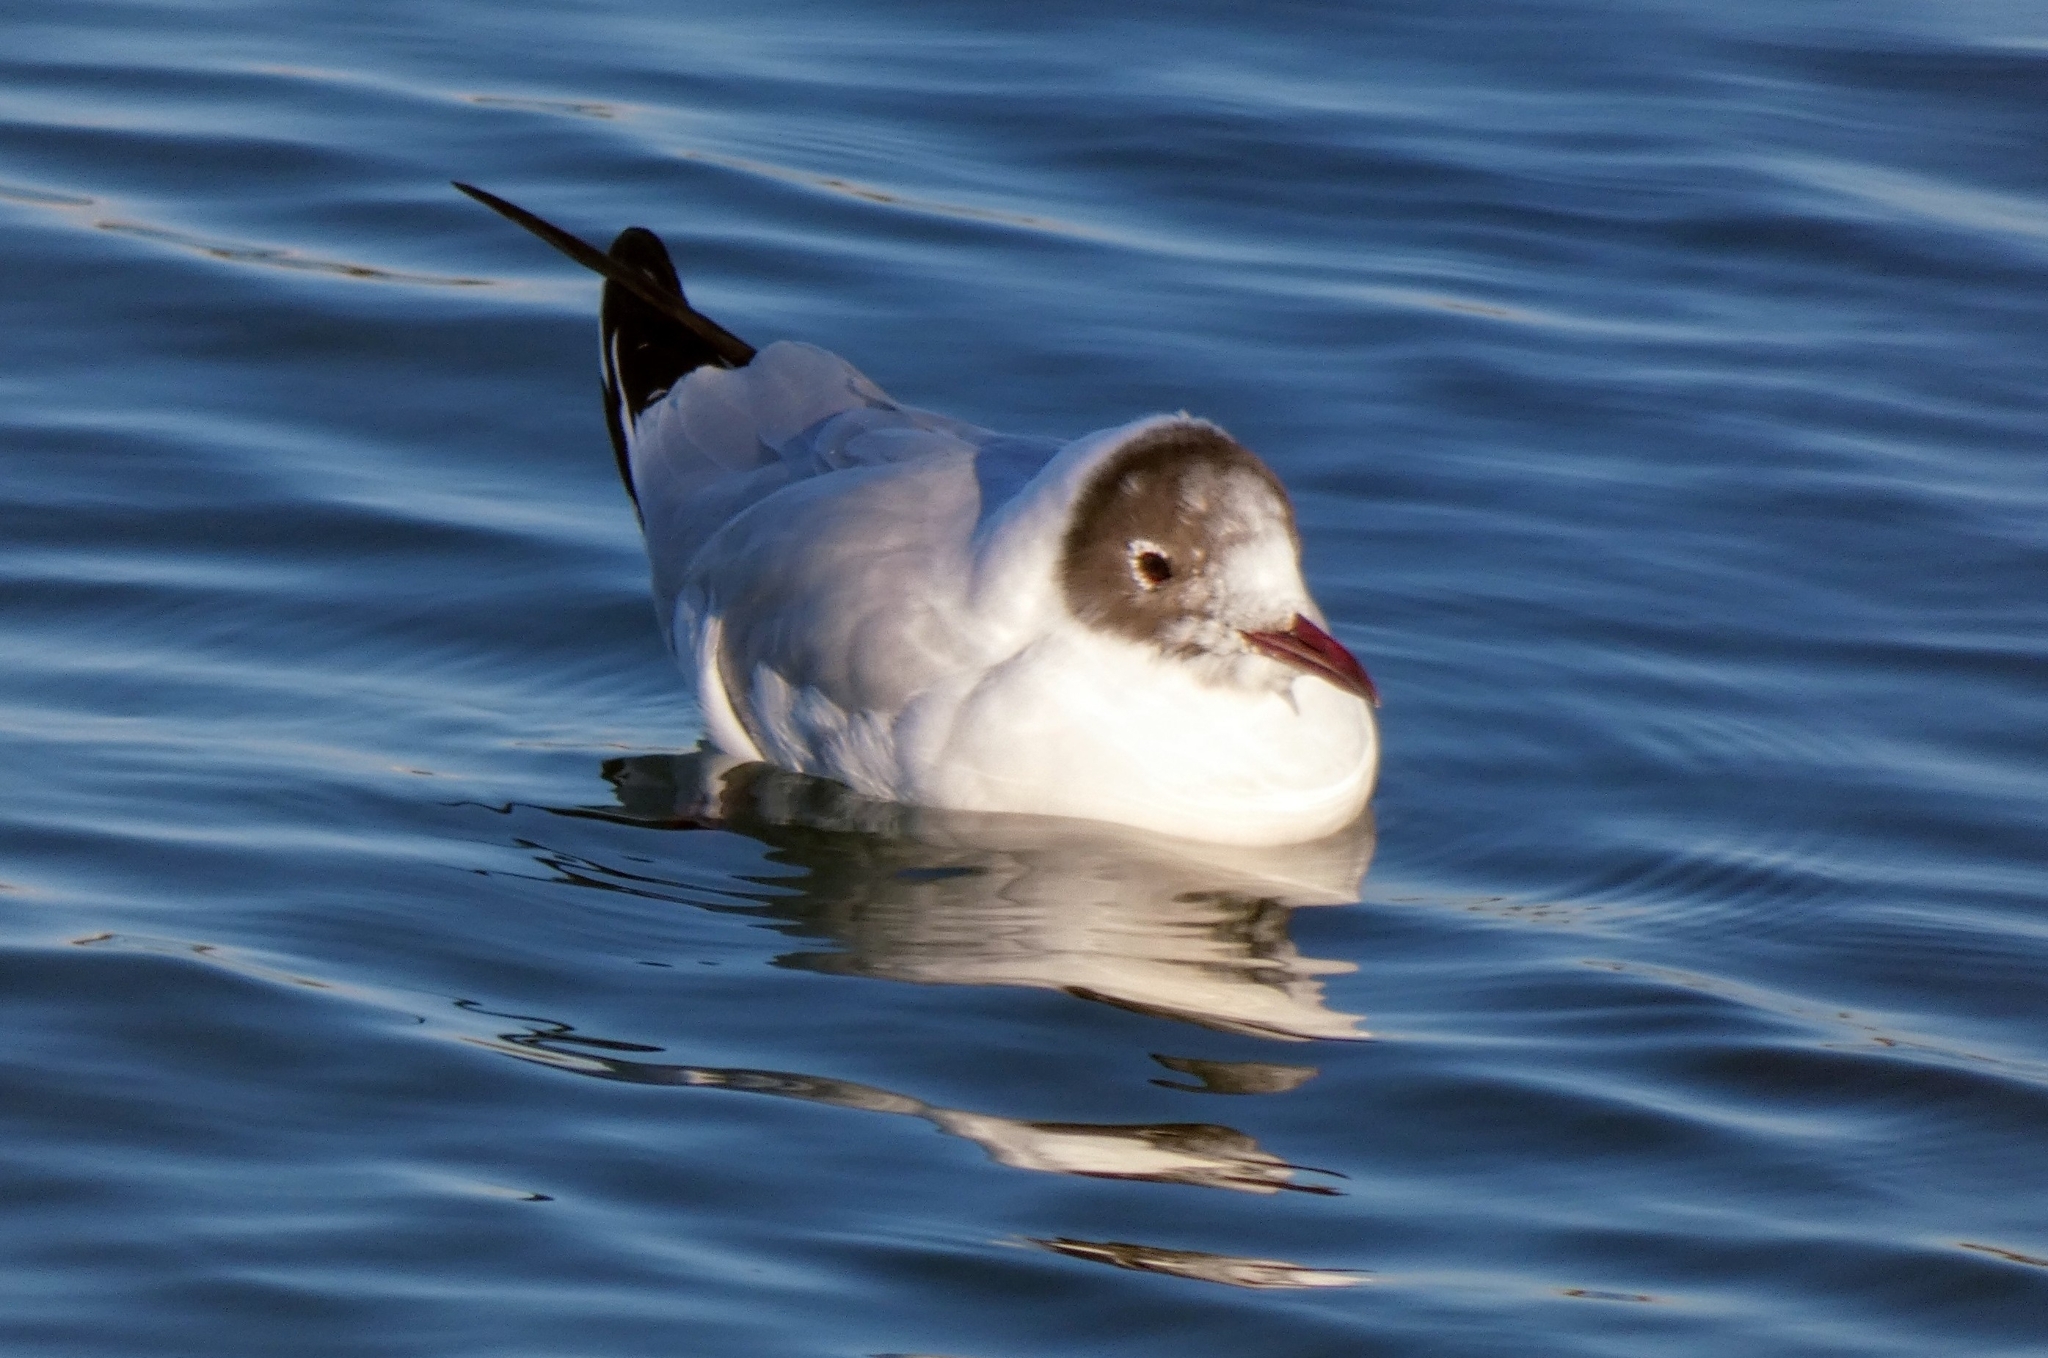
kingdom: Animalia
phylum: Chordata
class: Aves
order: Charadriiformes
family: Laridae
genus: Chroicocephalus
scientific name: Chroicocephalus ridibundus
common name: Black-headed gull
